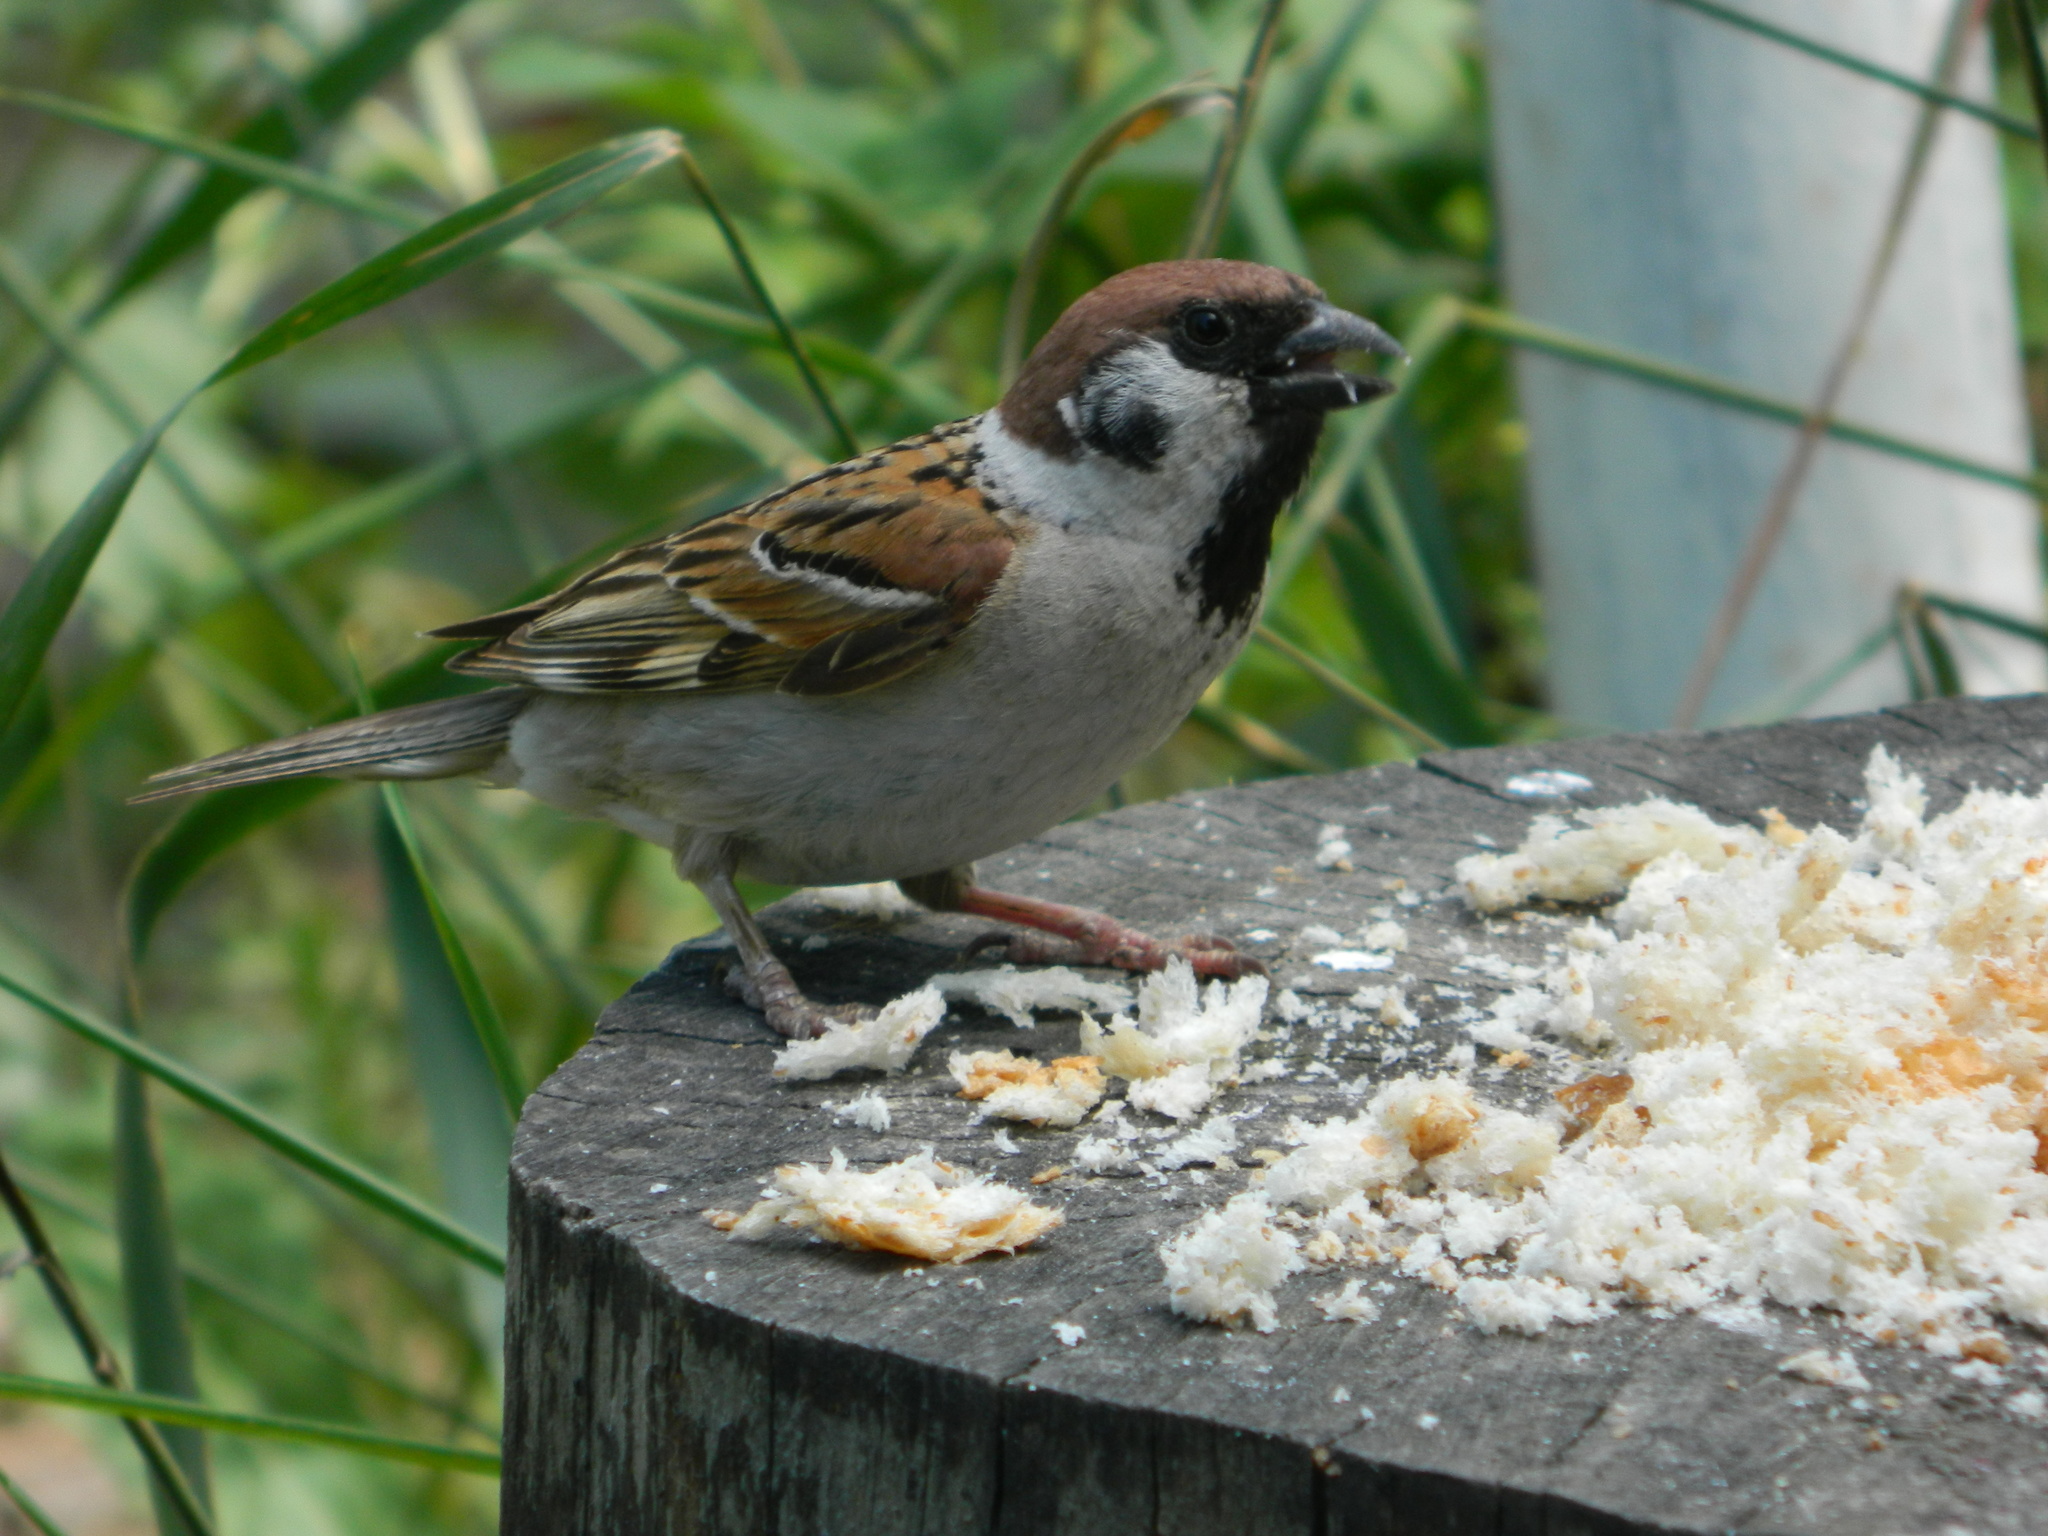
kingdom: Animalia
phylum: Chordata
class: Aves
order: Passeriformes
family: Passeridae
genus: Passer
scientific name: Passer montanus
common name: Eurasian tree sparrow
